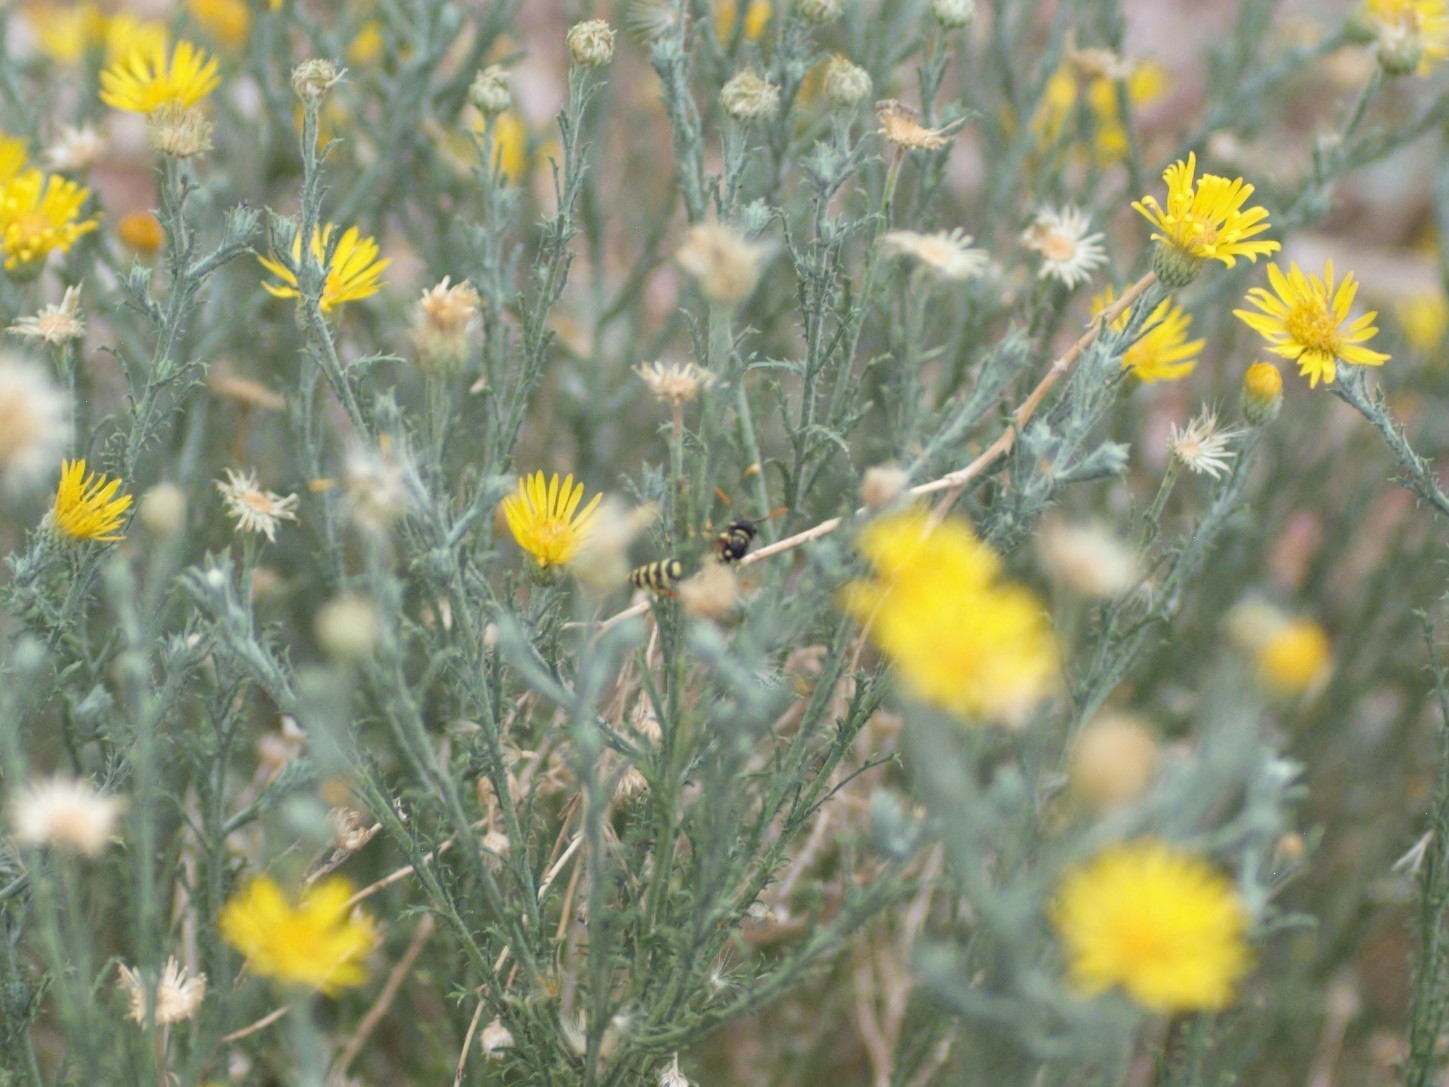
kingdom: Animalia
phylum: Arthropoda
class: Insecta
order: Hymenoptera
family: Eumenidae
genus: Polistes
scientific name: Polistes dominula
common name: Paper wasp
